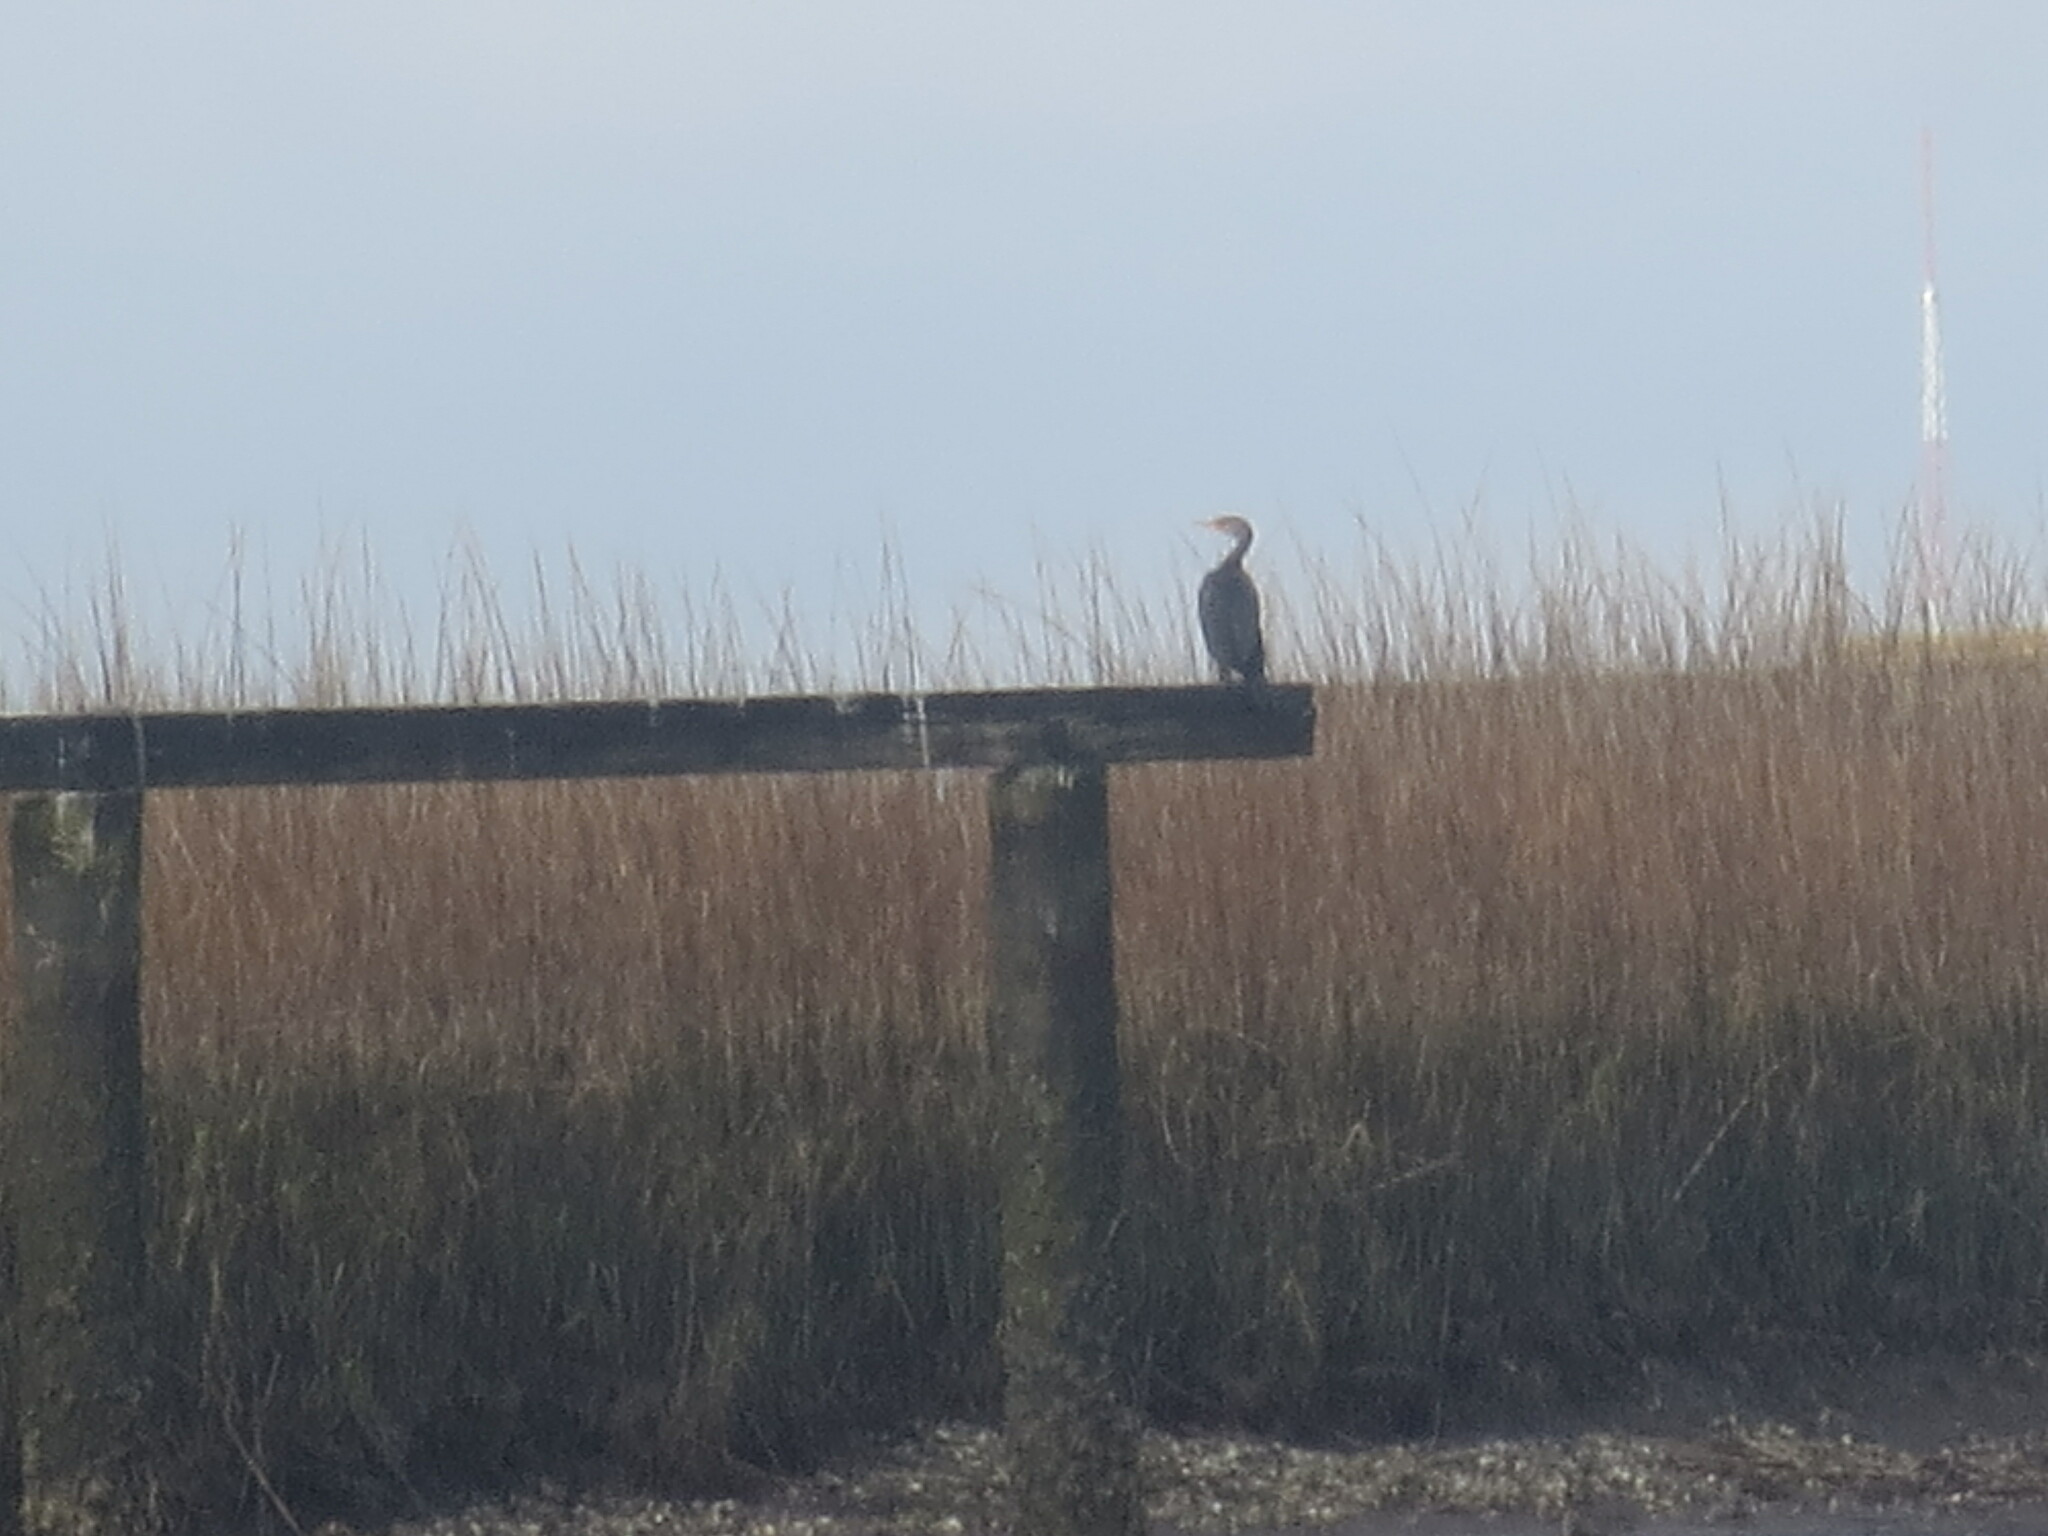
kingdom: Animalia
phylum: Chordata
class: Aves
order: Suliformes
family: Phalacrocoracidae
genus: Phalacrocorax
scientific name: Phalacrocorax auritus
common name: Double-crested cormorant
